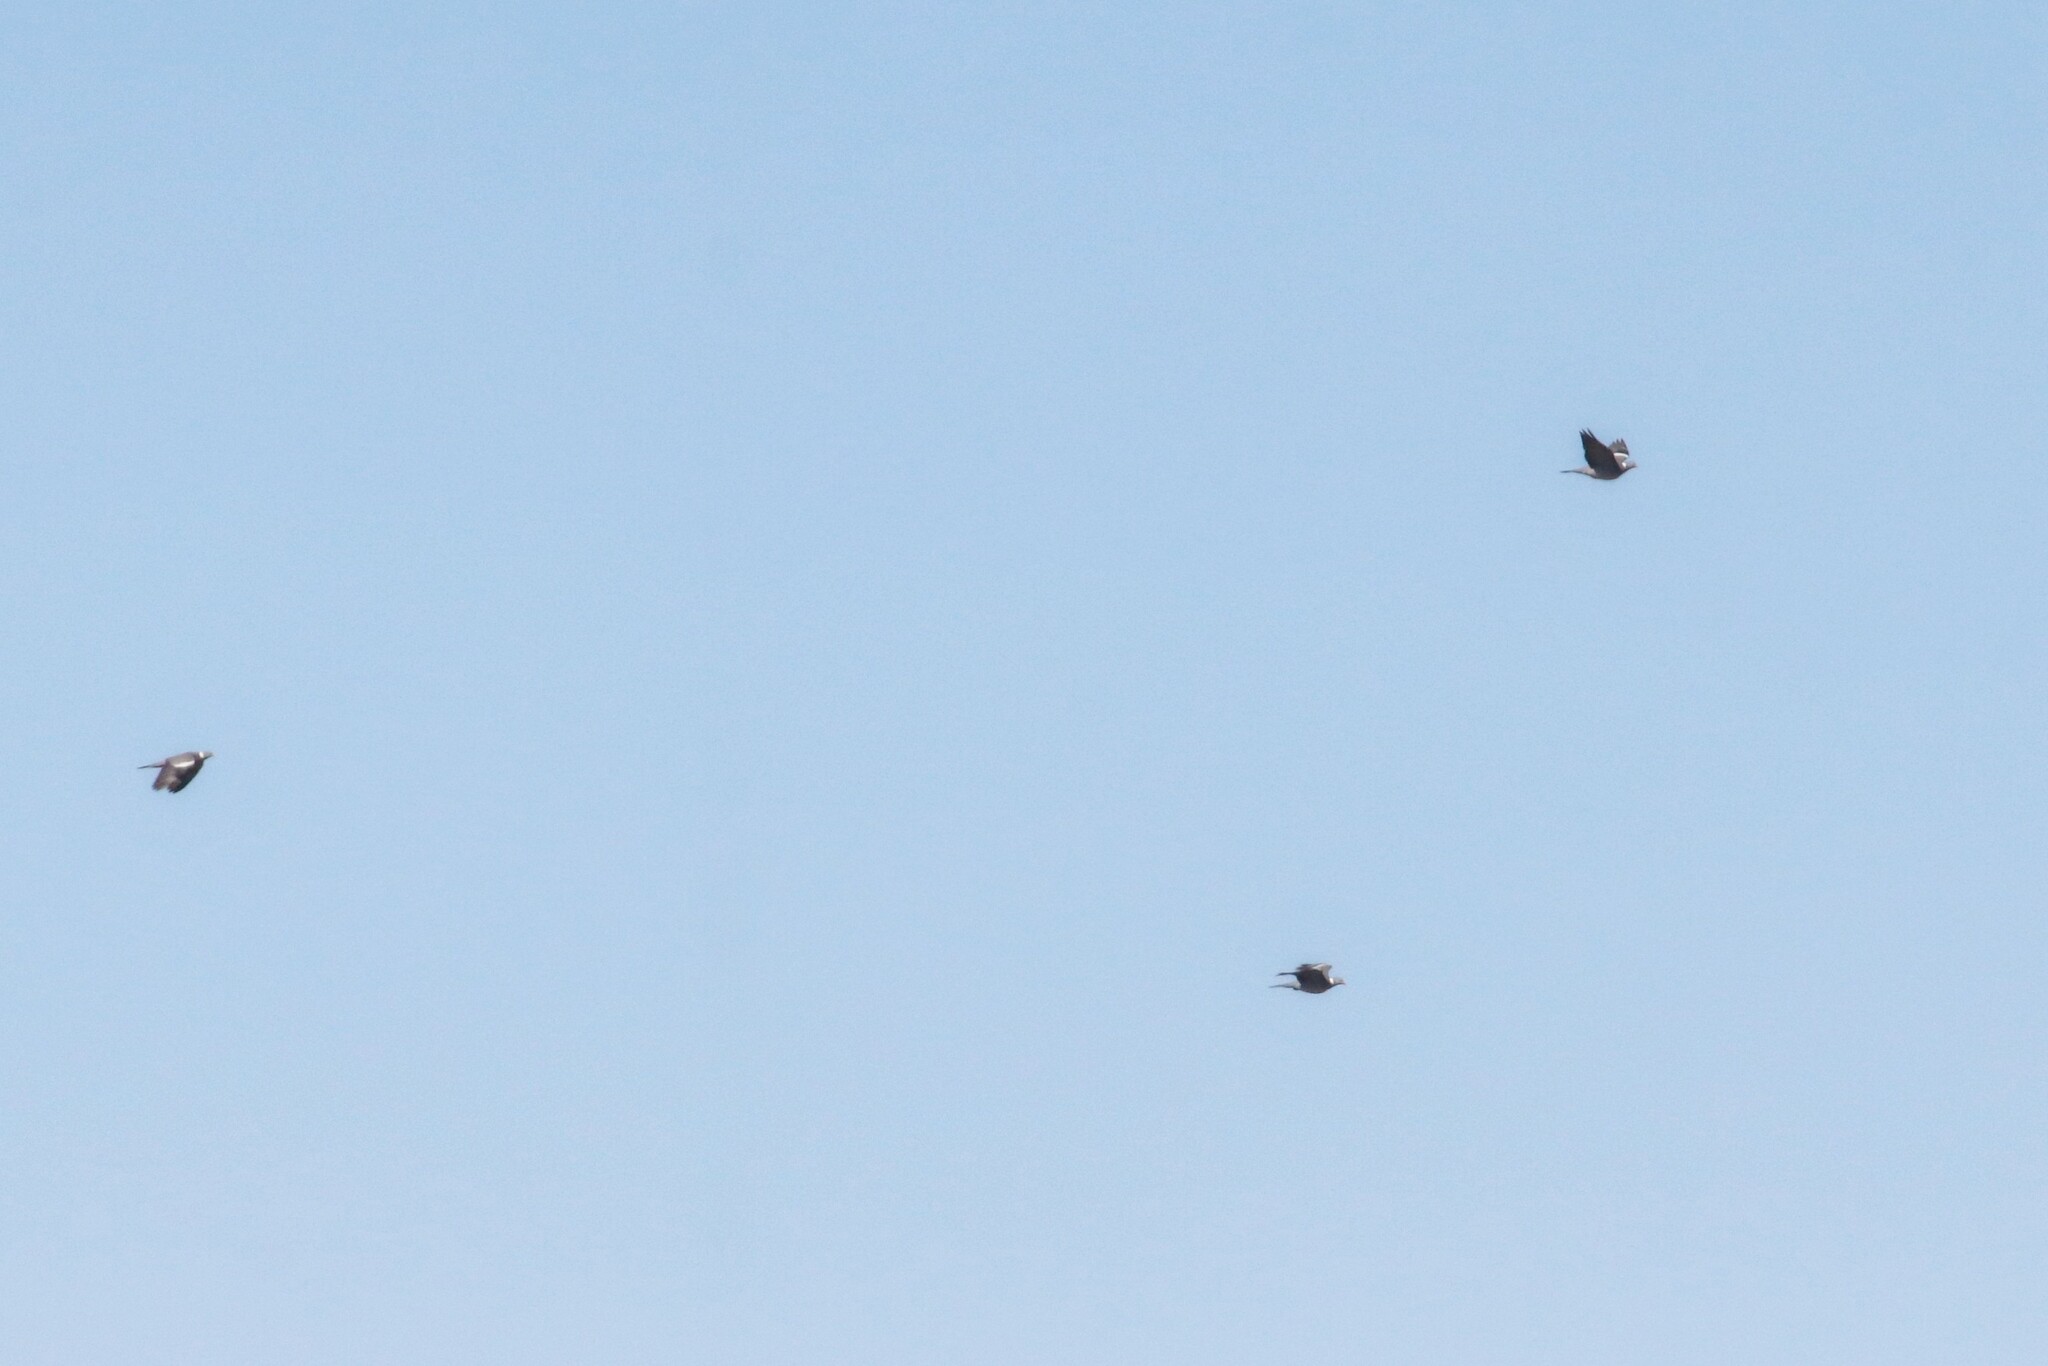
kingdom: Animalia
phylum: Chordata
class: Aves
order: Columbiformes
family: Columbidae
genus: Columba
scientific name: Columba palumbus
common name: Common wood pigeon
